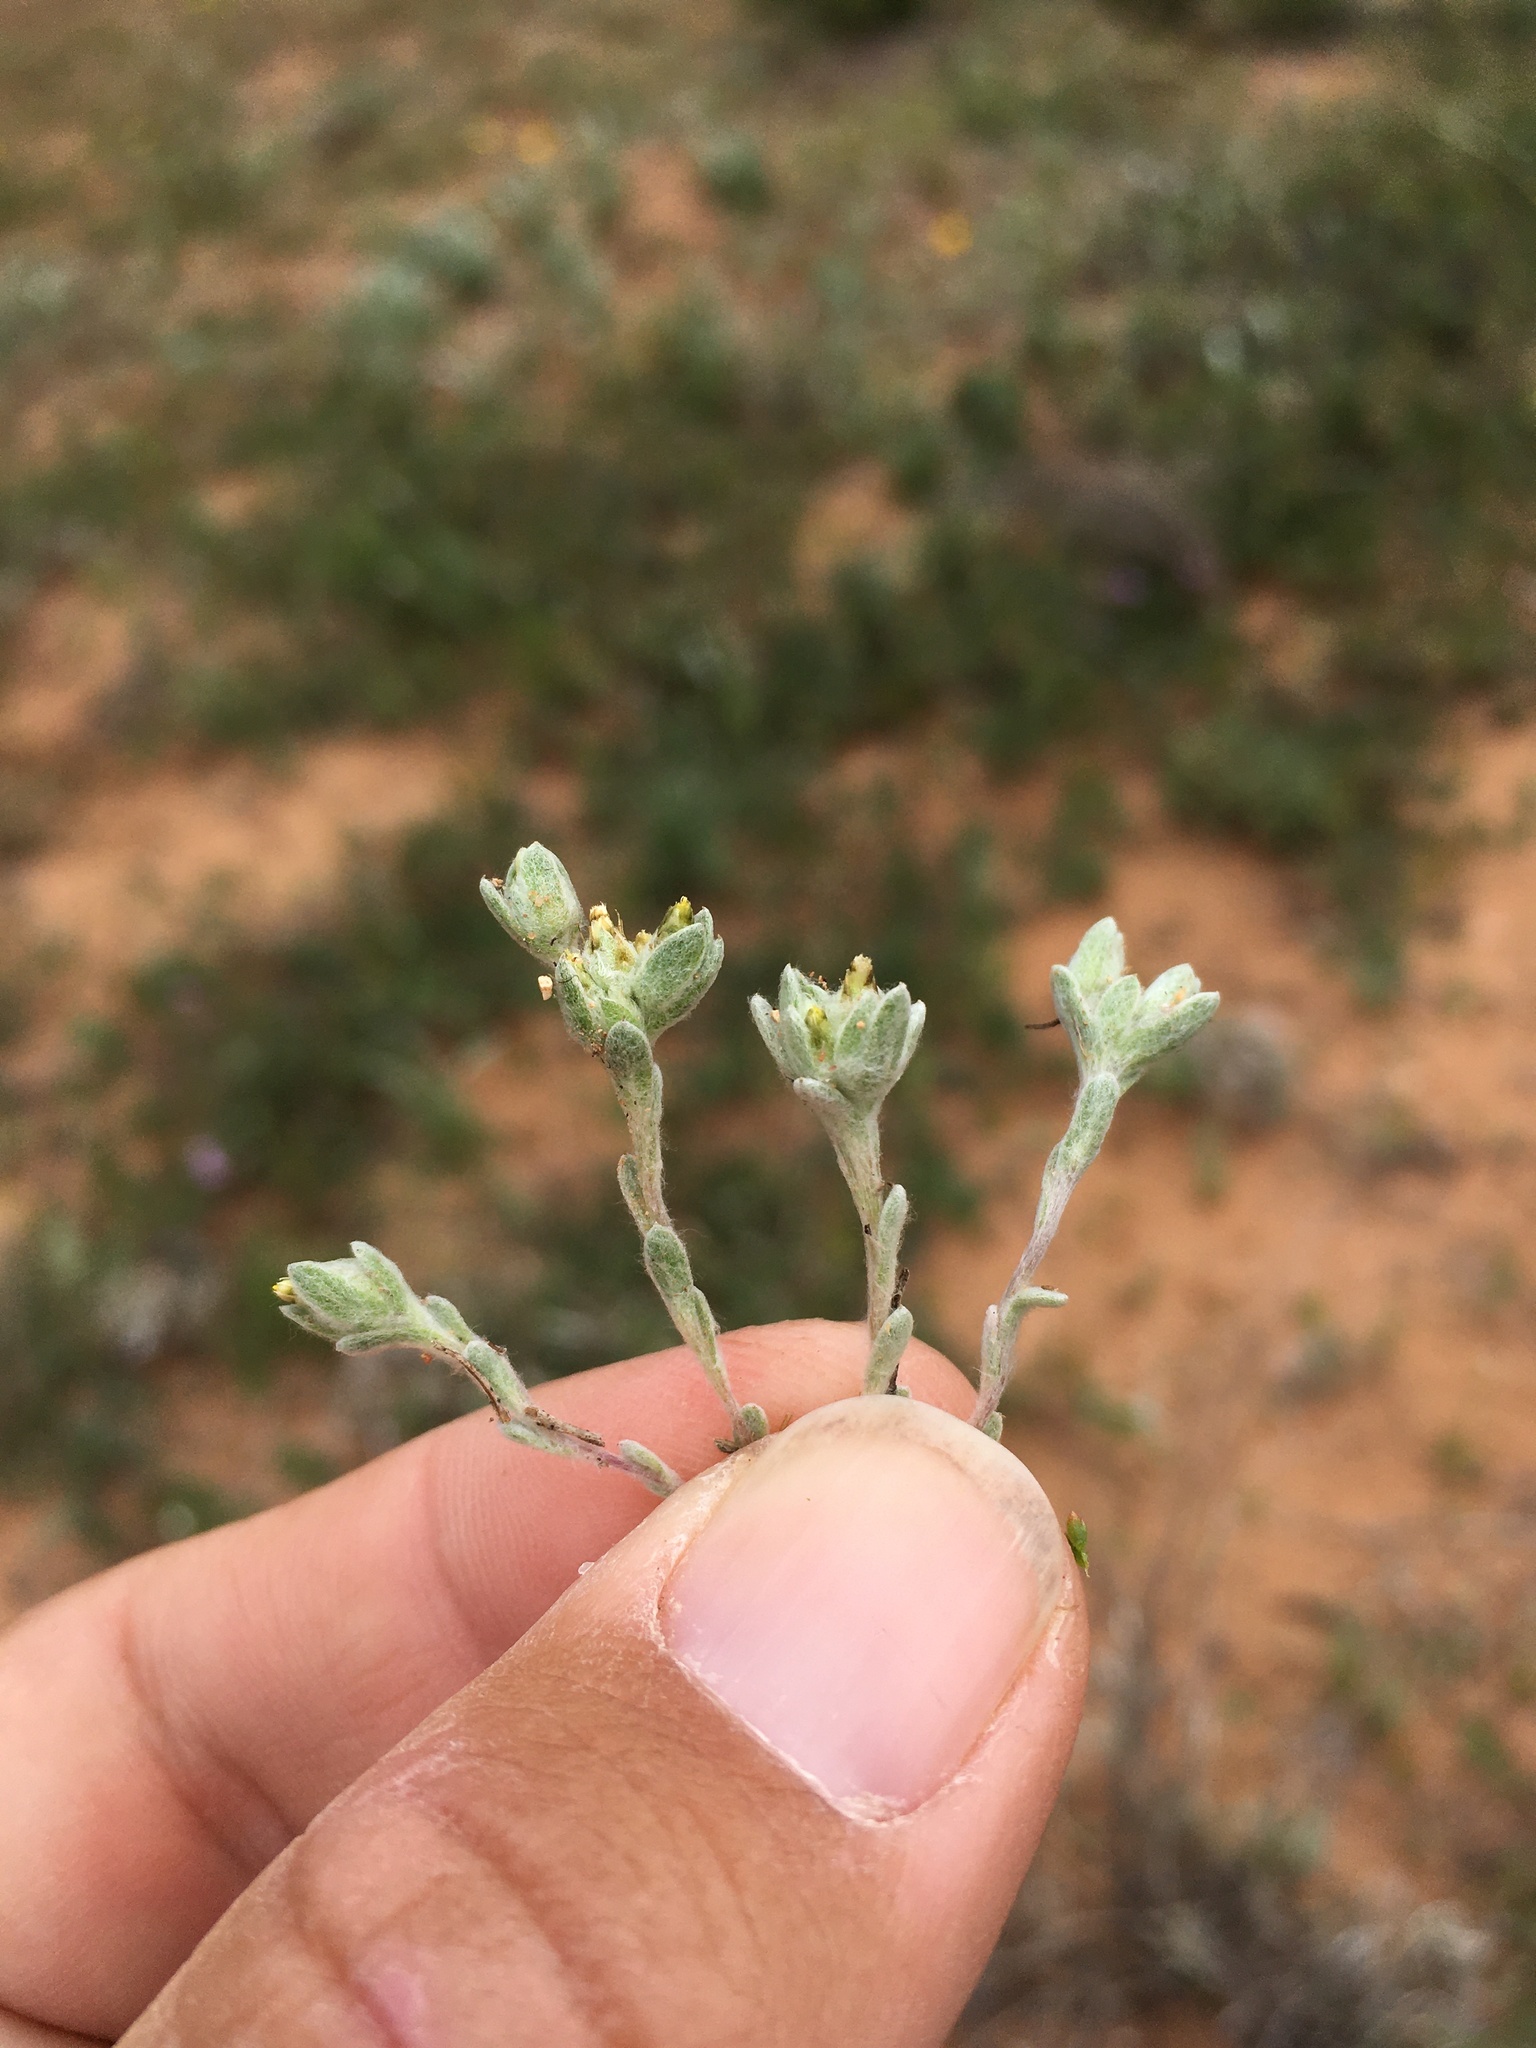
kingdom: Plantae
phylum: Tracheophyta
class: Magnoliopsida
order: Asterales
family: Asteraceae
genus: Logfia
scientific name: Logfia depressa
